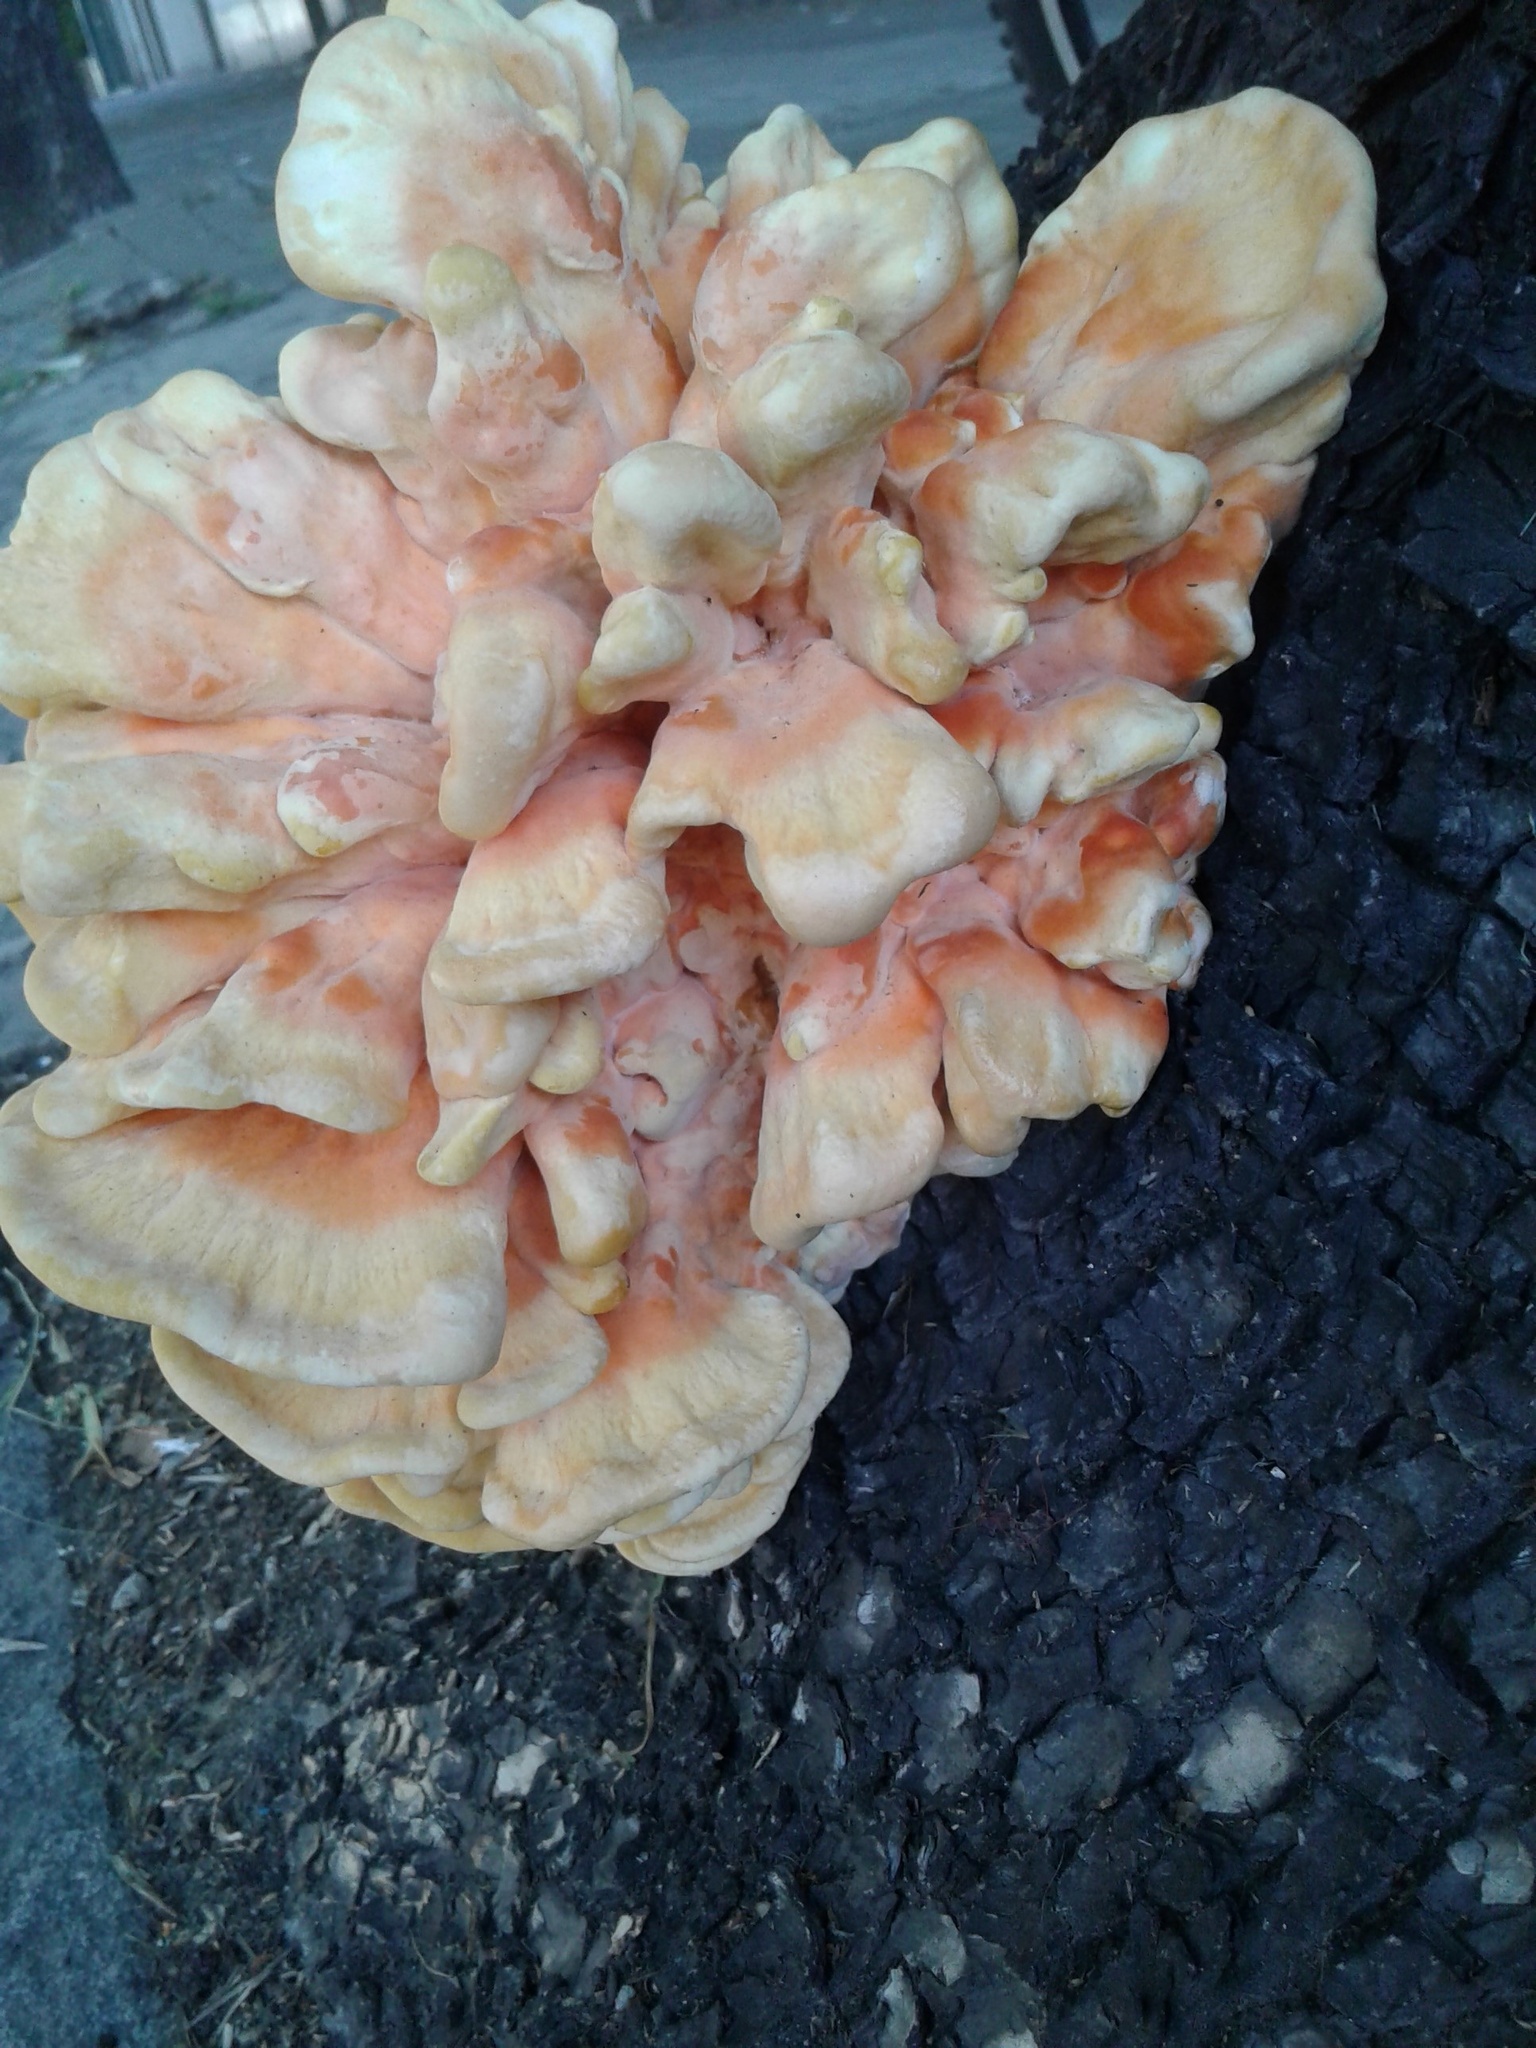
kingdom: Fungi
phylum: Basidiomycota
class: Agaricomycetes
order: Polyporales
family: Laetiporaceae
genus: Laetiporus
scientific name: Laetiporus sulphureus
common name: Chicken of the woods
